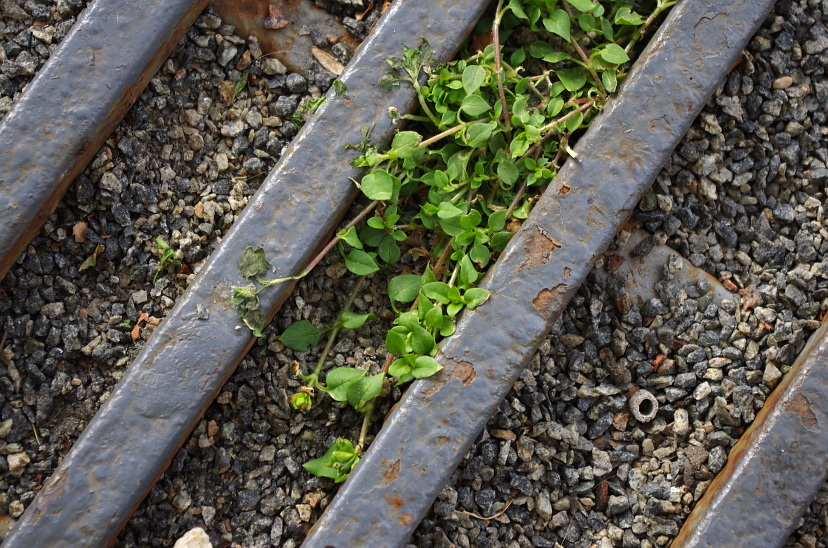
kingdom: Plantae
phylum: Tracheophyta
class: Magnoliopsida
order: Caryophyllales
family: Caryophyllaceae
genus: Stellaria
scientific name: Stellaria media
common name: Common chickweed
